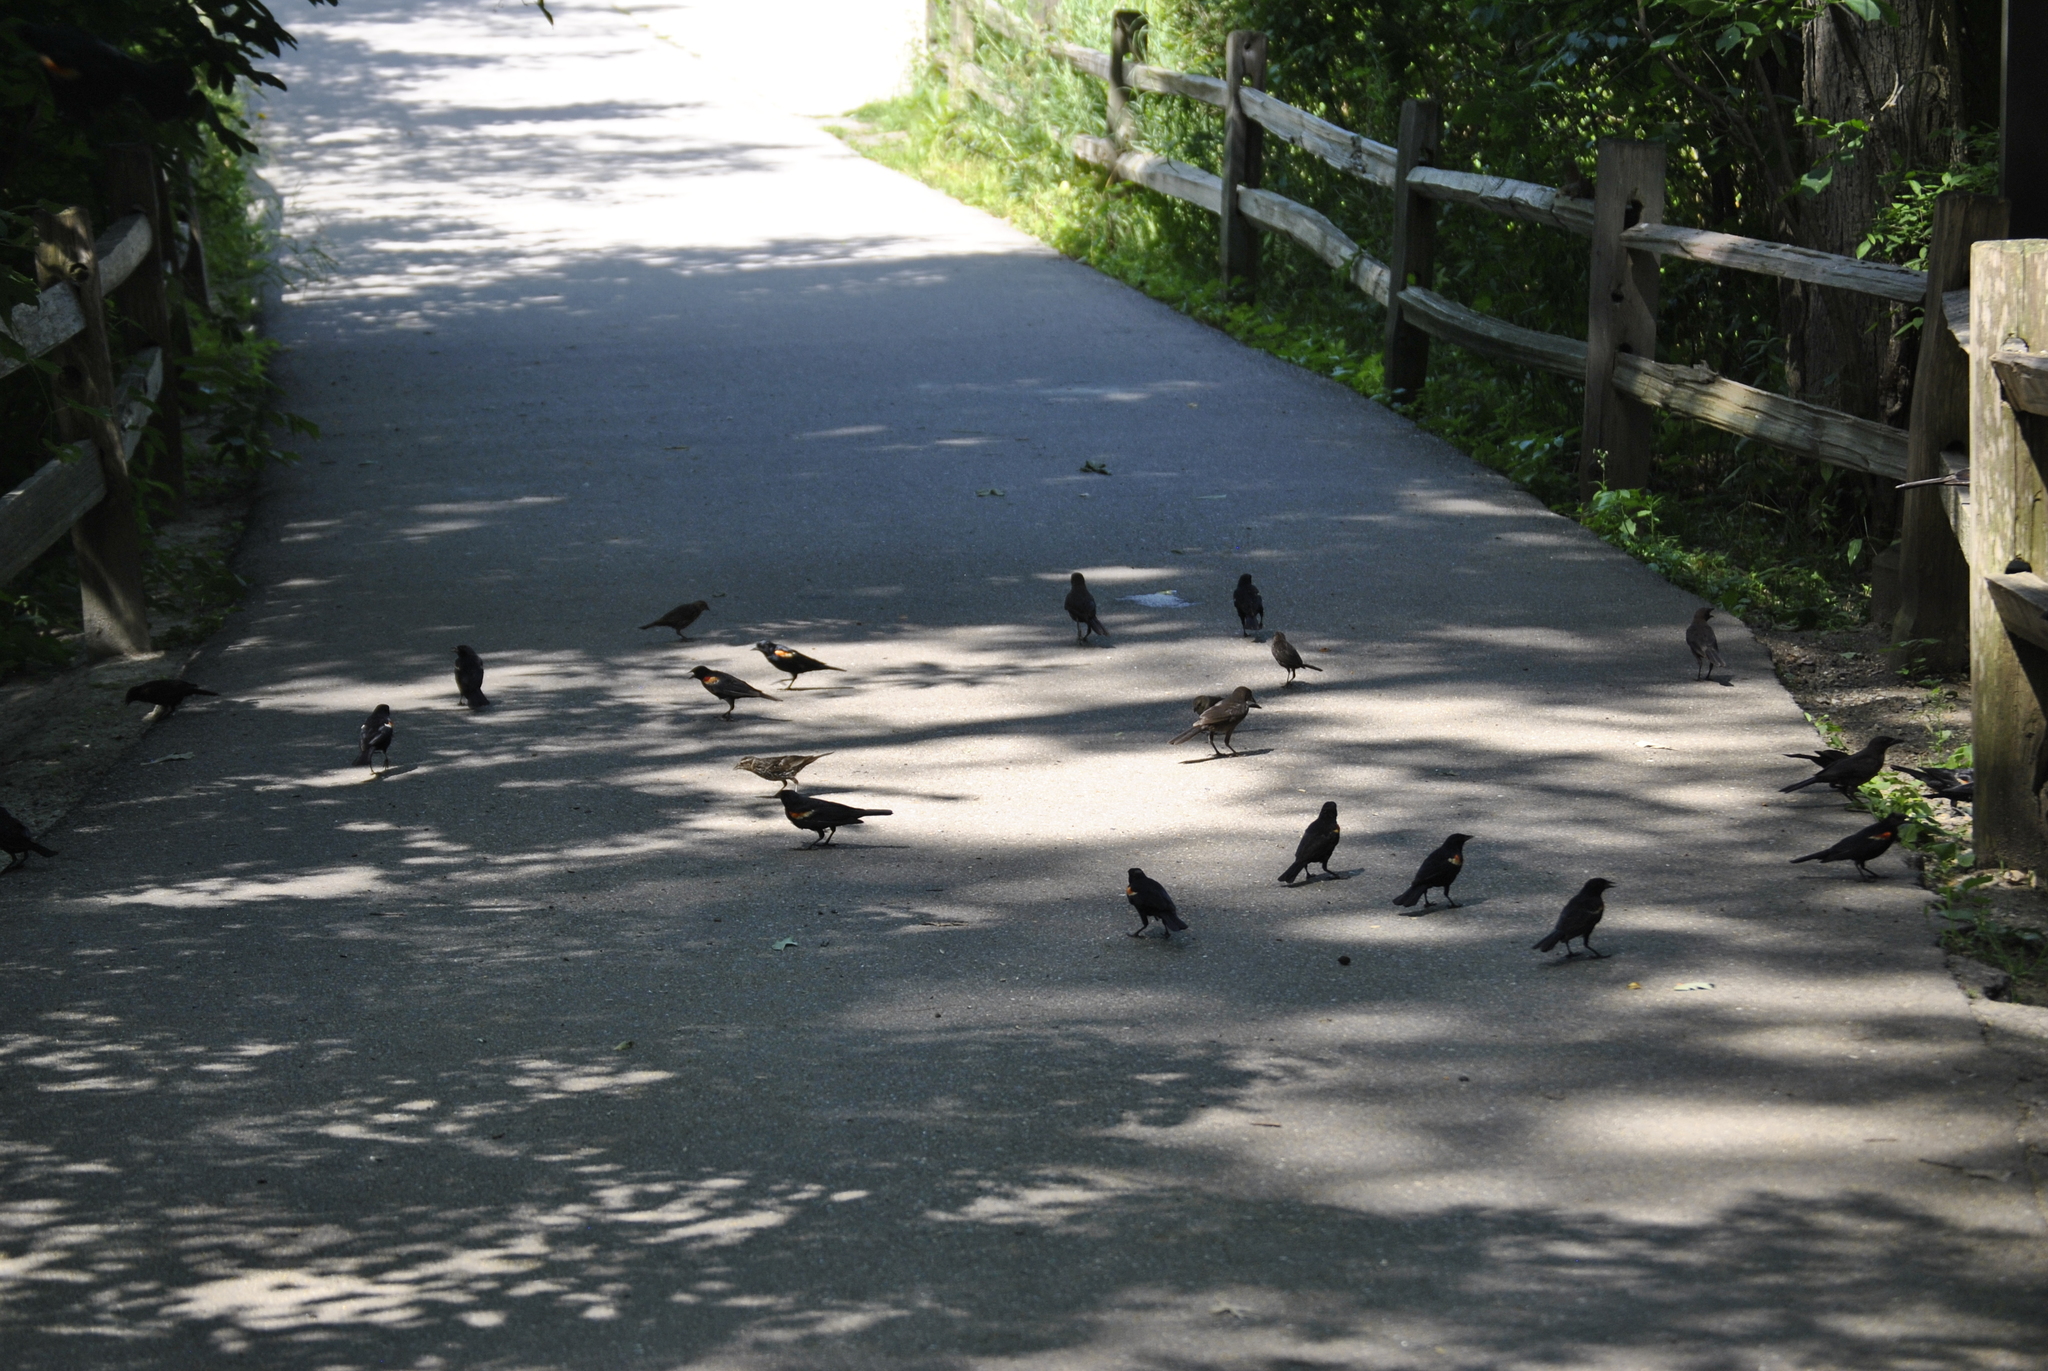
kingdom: Animalia
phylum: Chordata
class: Aves
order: Passeriformes
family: Icteridae
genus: Agelaius
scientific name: Agelaius phoeniceus
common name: Red-winged blackbird
